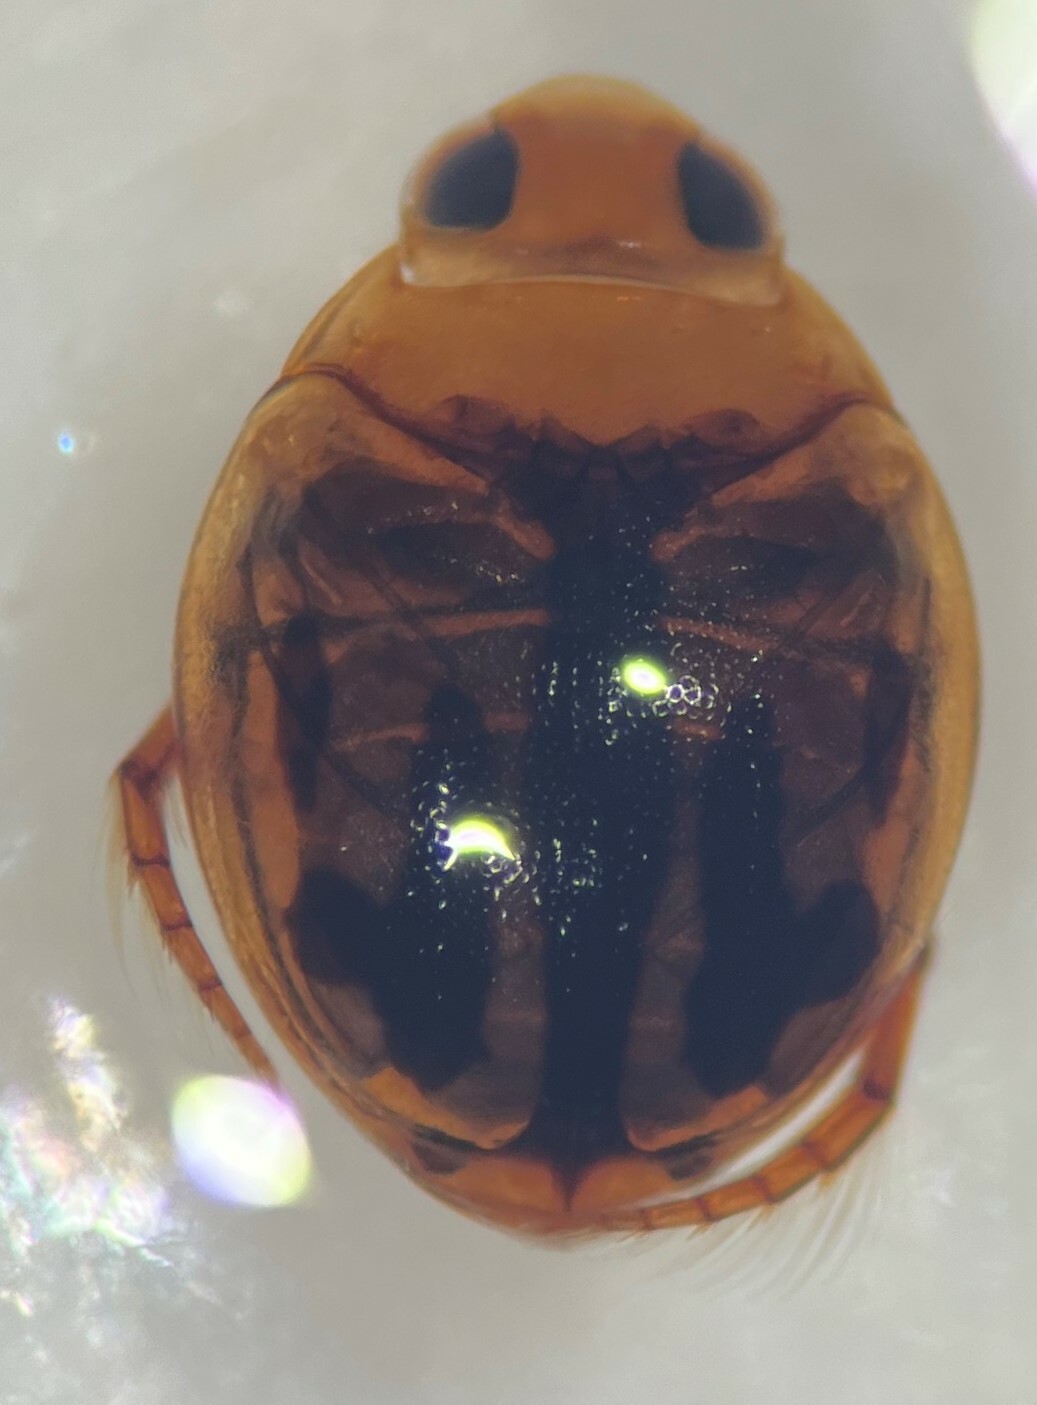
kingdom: Animalia
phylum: Arthropoda
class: Insecta
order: Coleoptera
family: Dytiscidae
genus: Desmopachria
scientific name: Desmopachria dispersa
